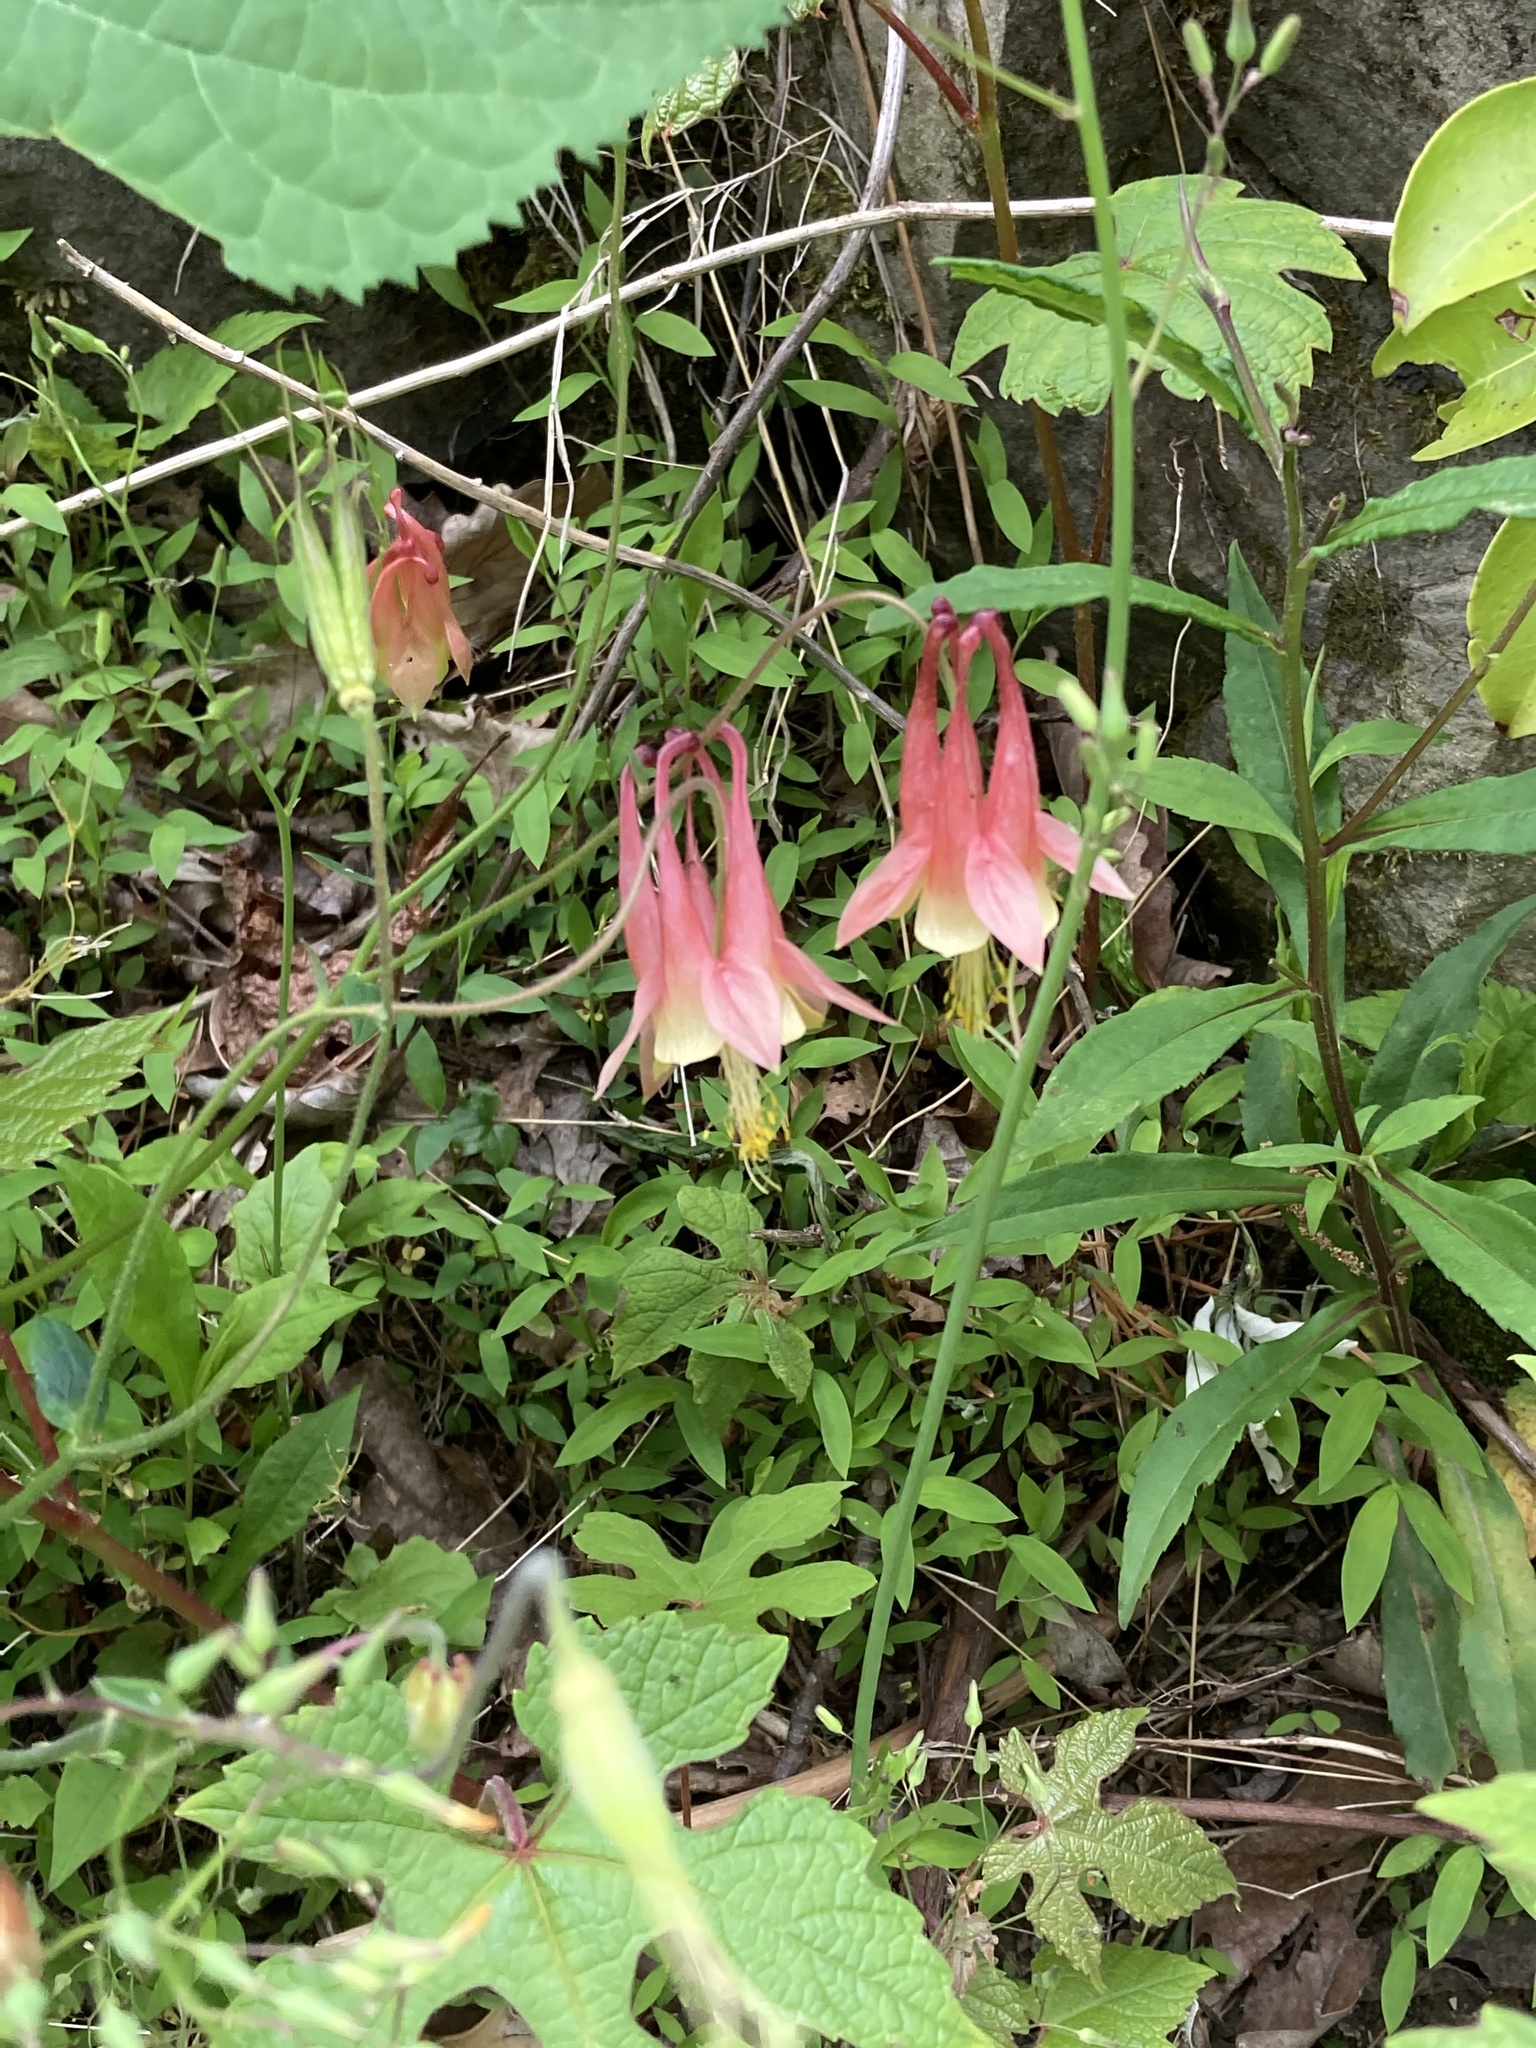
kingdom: Plantae
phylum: Tracheophyta
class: Magnoliopsida
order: Ranunculales
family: Ranunculaceae
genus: Aquilegia
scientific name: Aquilegia canadensis
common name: American columbine
